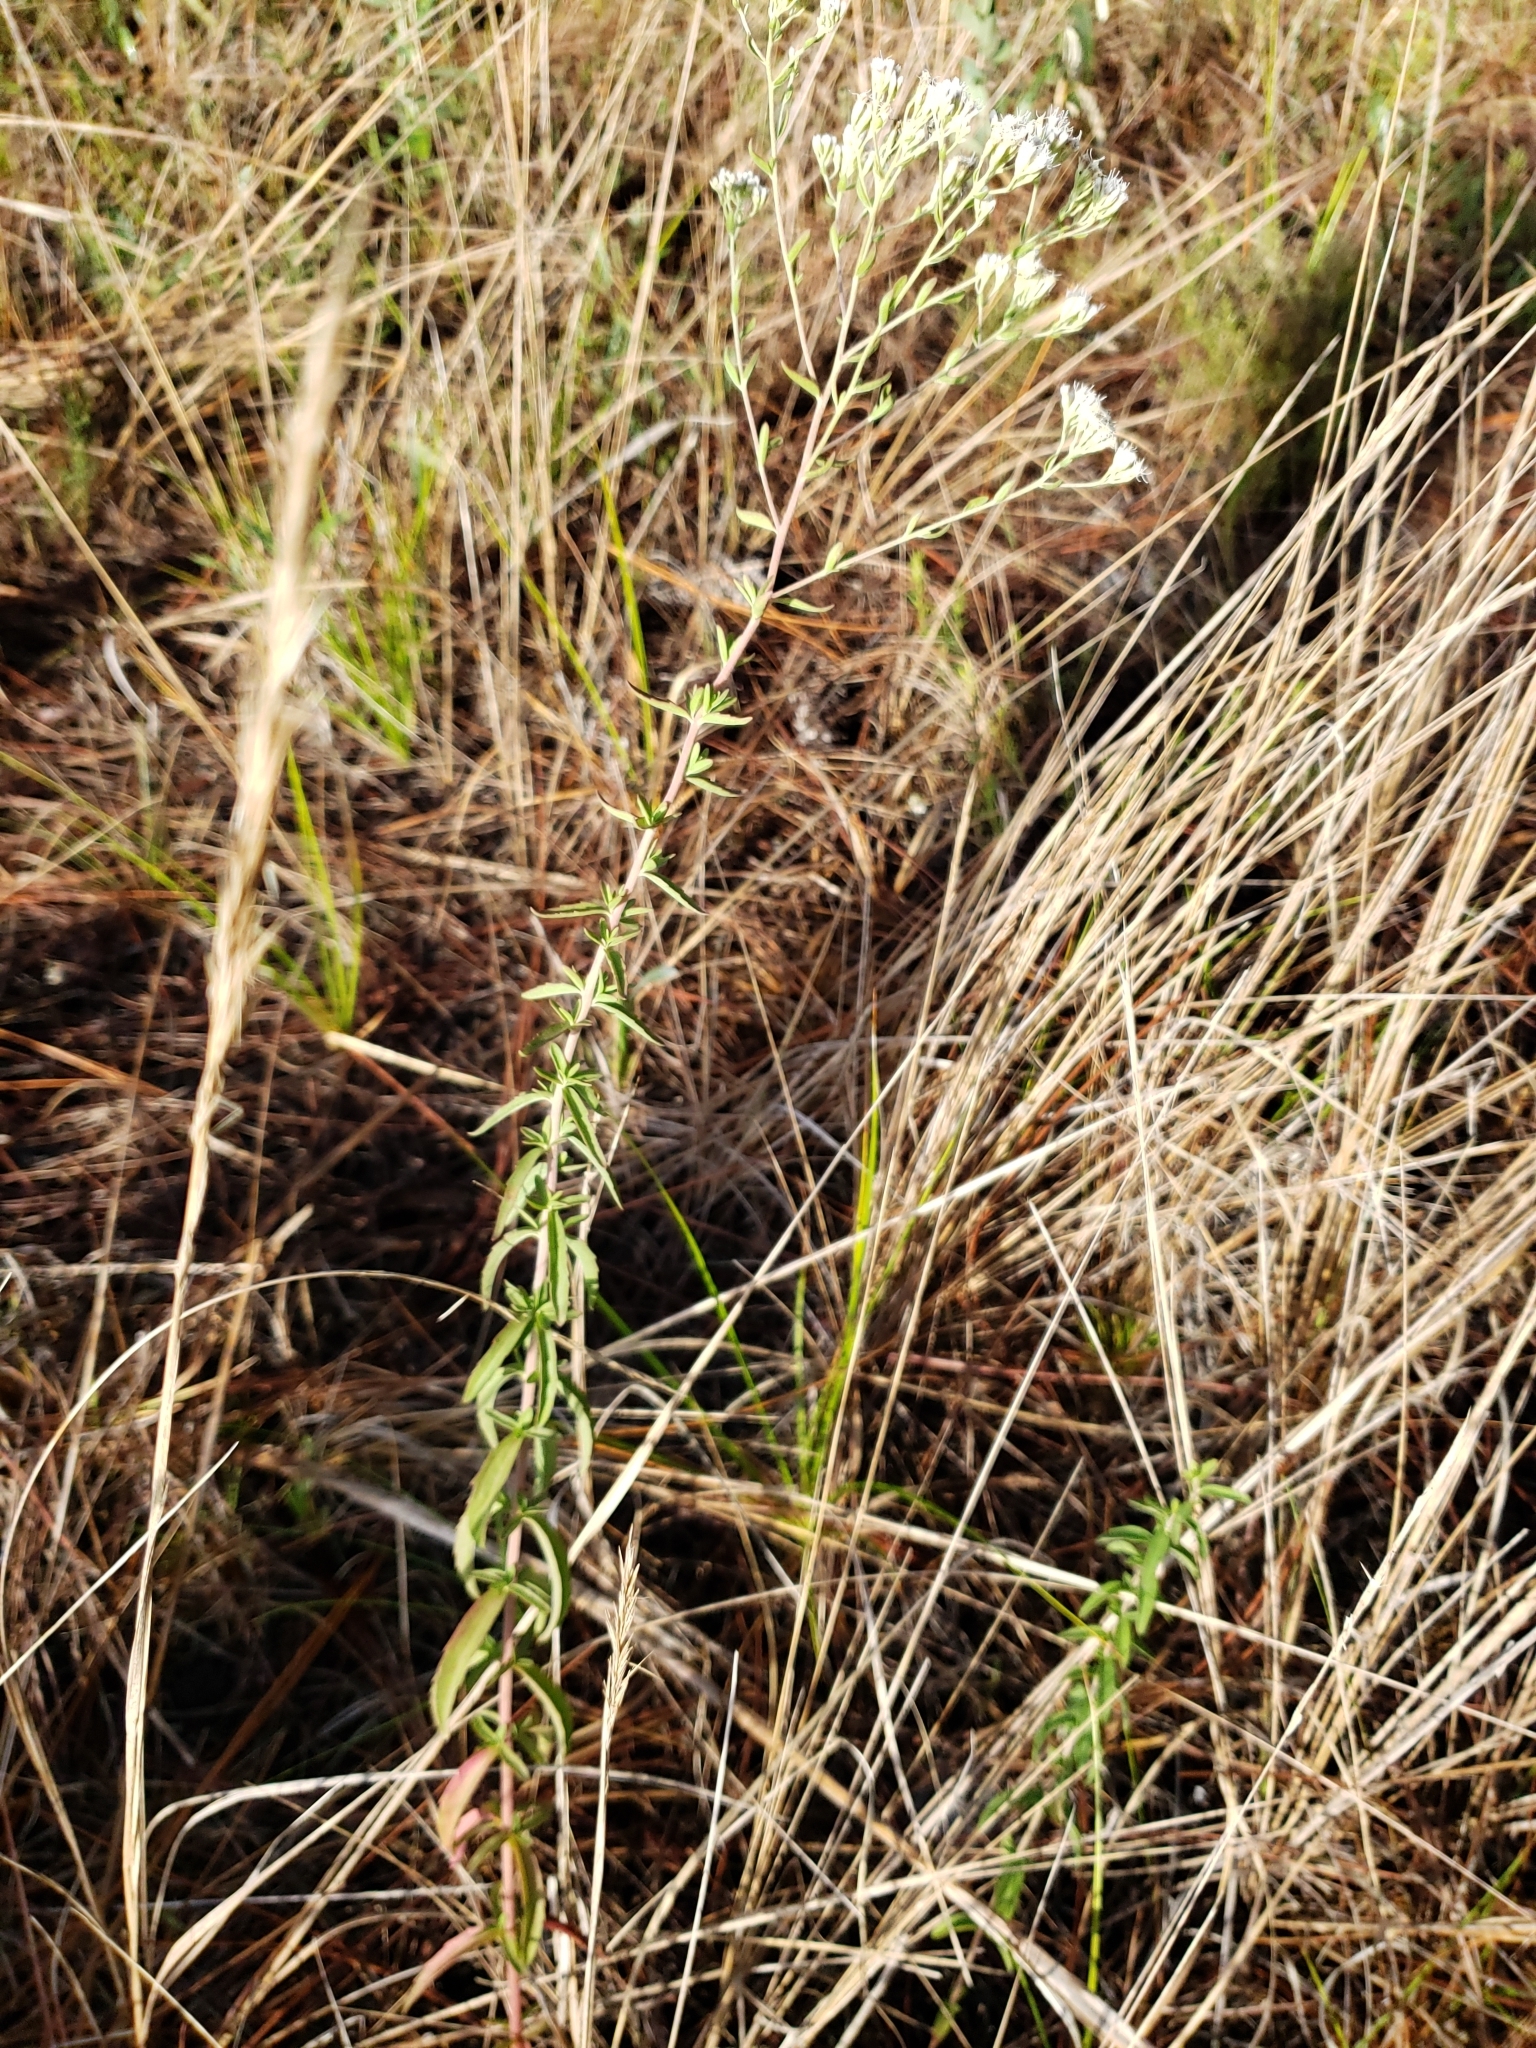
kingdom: Plantae
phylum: Tracheophyta
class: Magnoliopsida
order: Asterales
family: Asteraceae
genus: Eupatorium
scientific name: Eupatorium mohrii
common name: Mohr's thoroughwort
